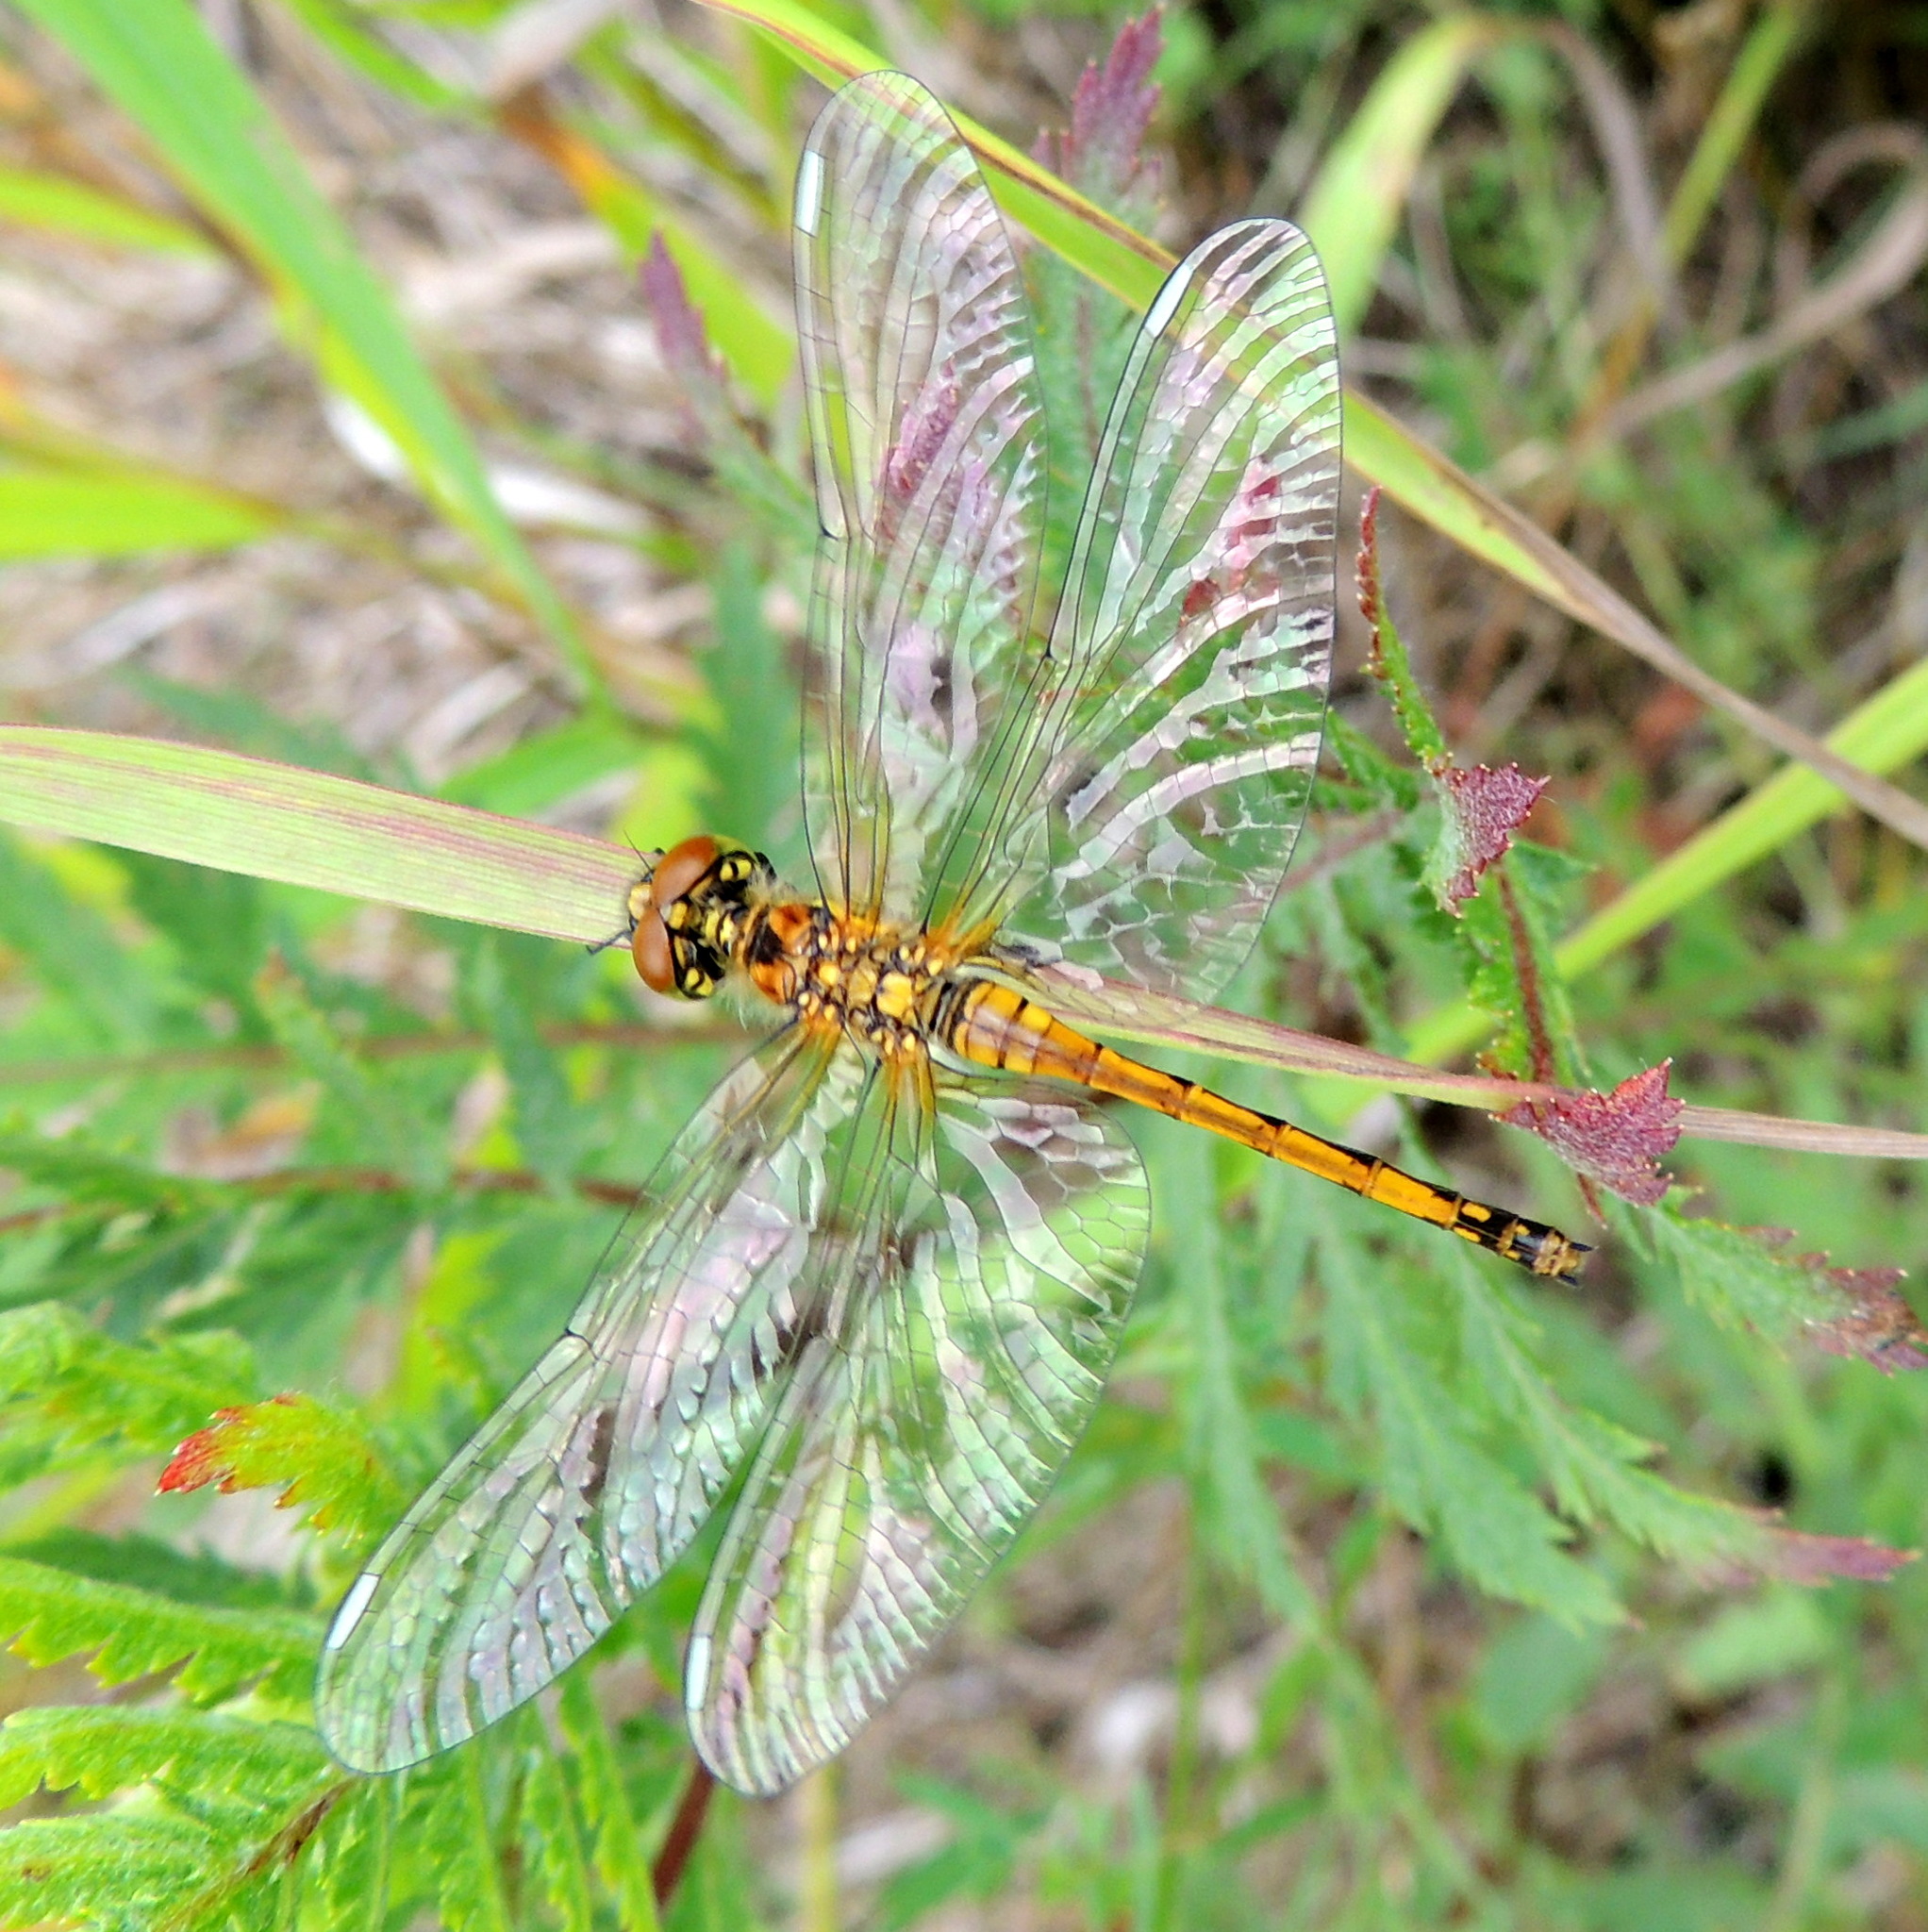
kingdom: Animalia
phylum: Arthropoda
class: Insecta
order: Odonata
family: Libellulidae
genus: Sympetrum
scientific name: Sympetrum danae
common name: Black darter
